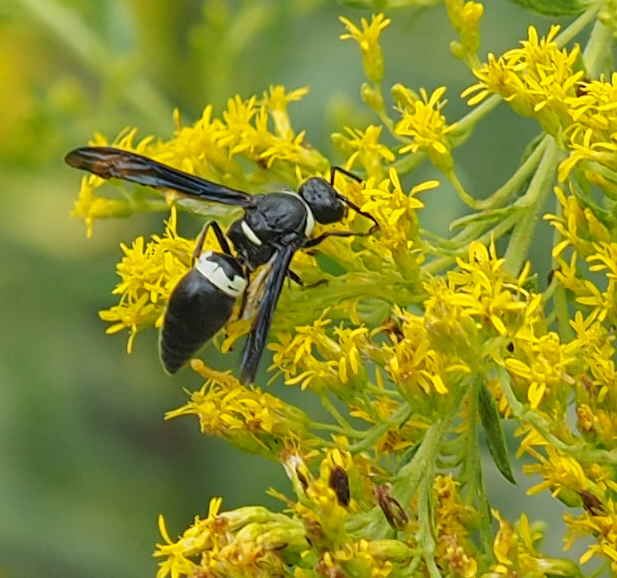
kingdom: Animalia
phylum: Arthropoda
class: Insecta
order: Hymenoptera
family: Eumenidae
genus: Monobia
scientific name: Monobia quadridens
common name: Four-toothed mason wasp
